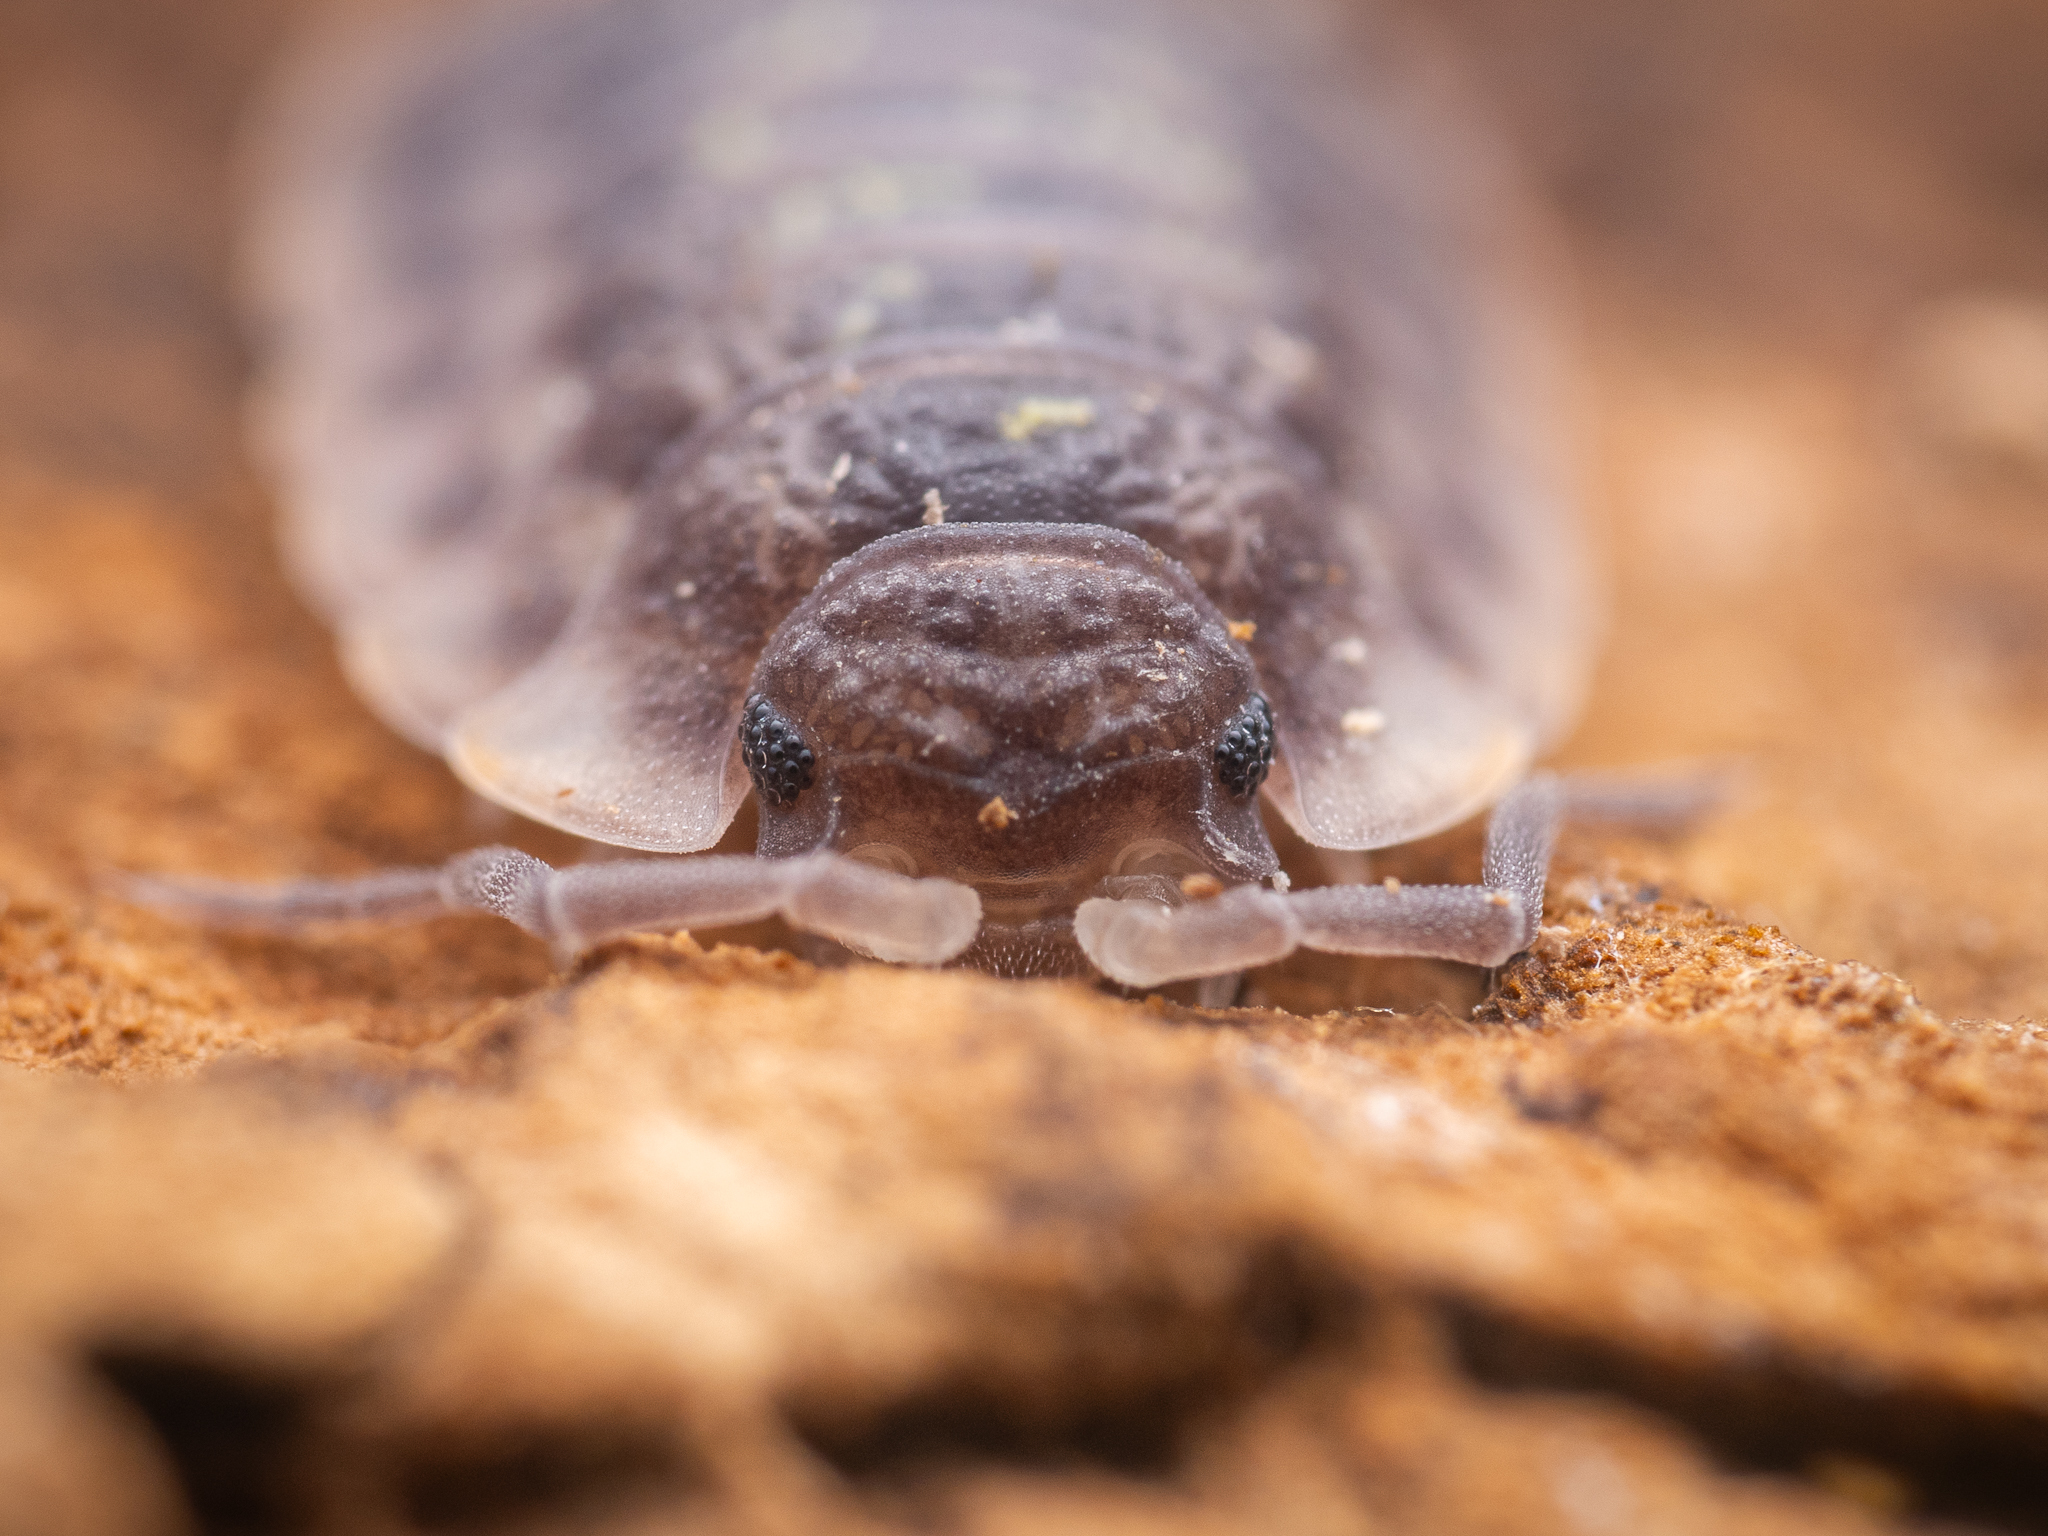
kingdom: Animalia
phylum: Arthropoda
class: Malacostraca
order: Isopoda
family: Oniscidae
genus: Oniscus
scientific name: Oniscus asellus
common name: Common shiny woodlouse
